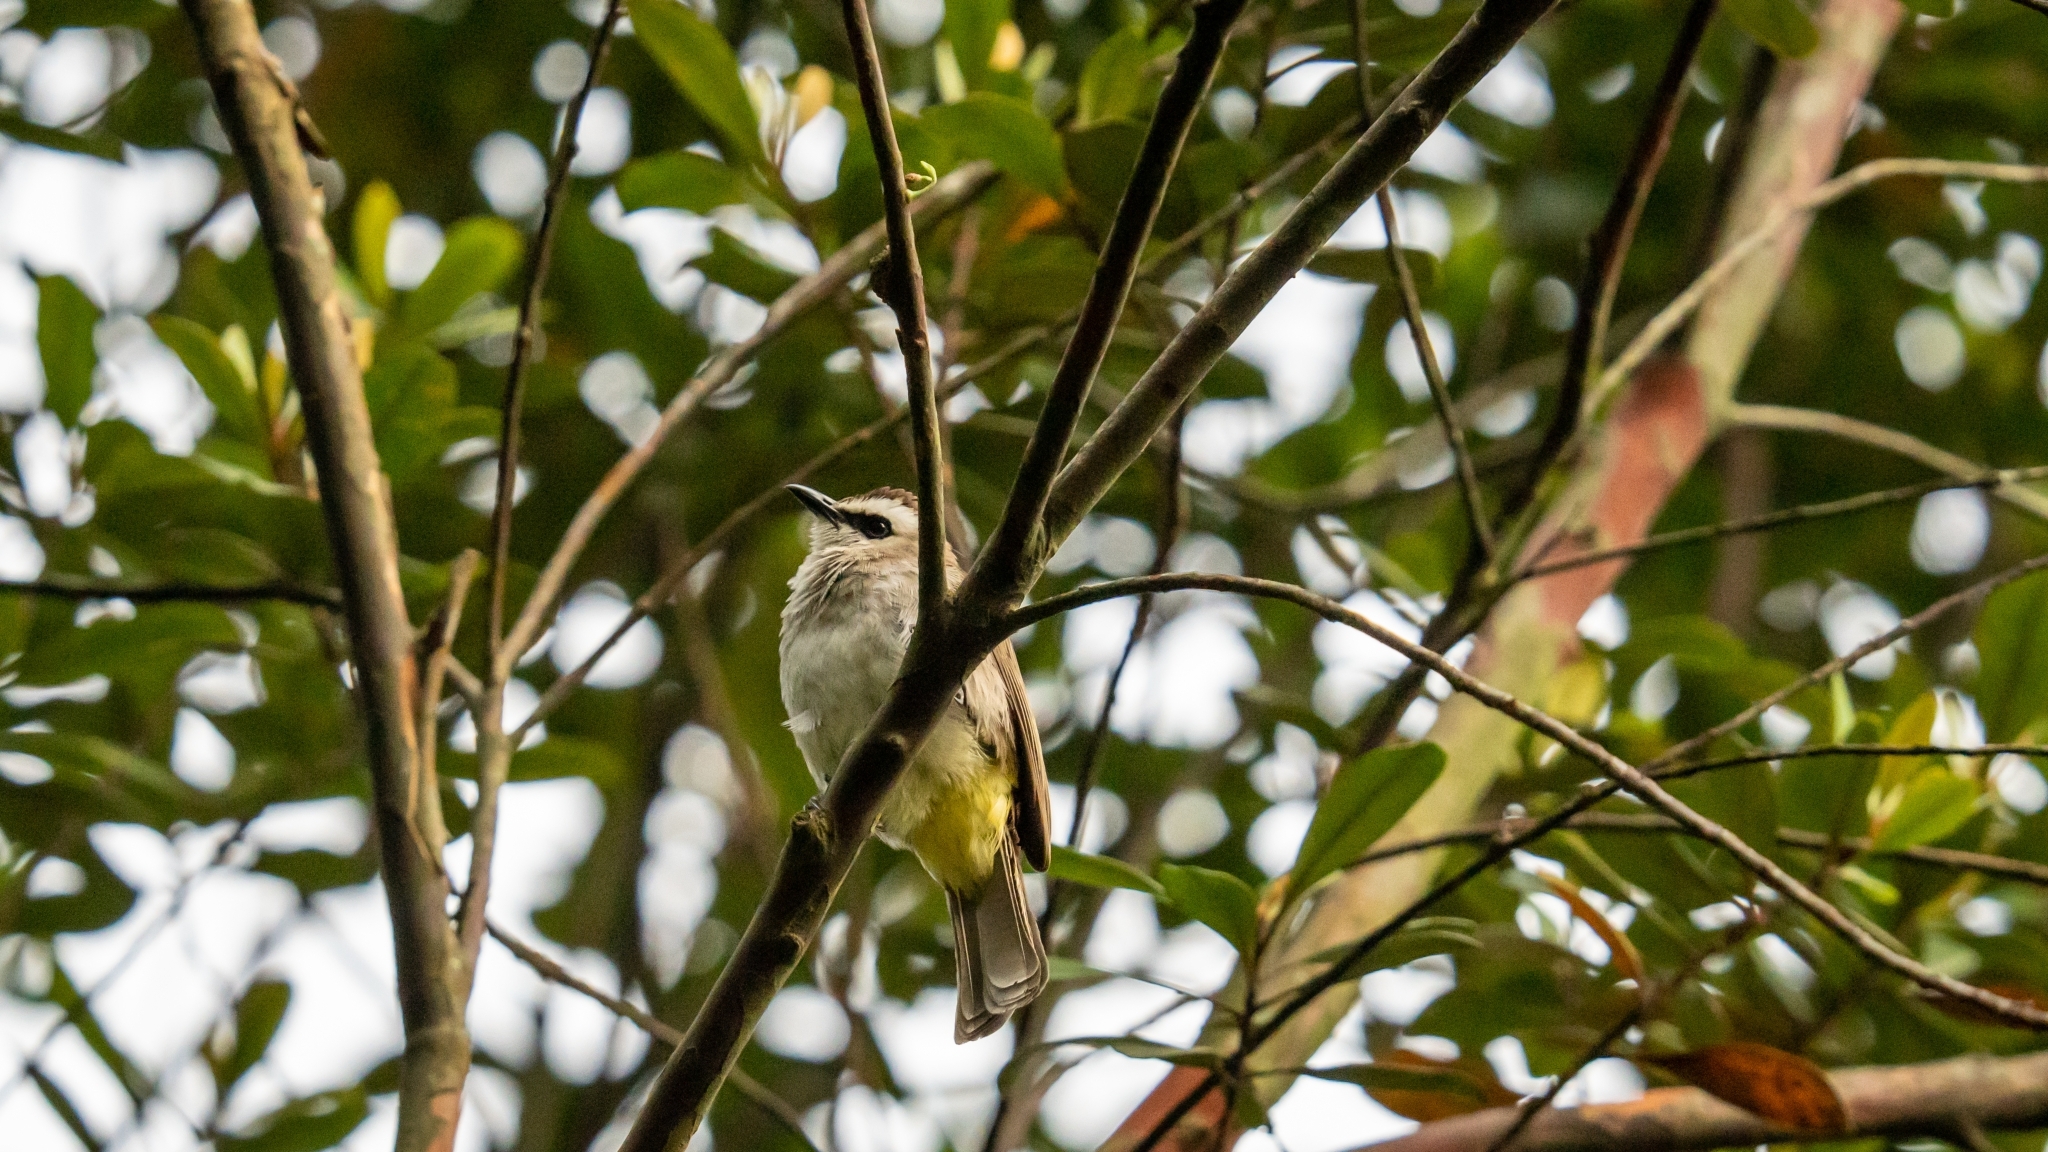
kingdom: Animalia
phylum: Chordata
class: Aves
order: Passeriformes
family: Pycnonotidae
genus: Pycnonotus
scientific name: Pycnonotus goiavier
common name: Yellow-vented bulbul
